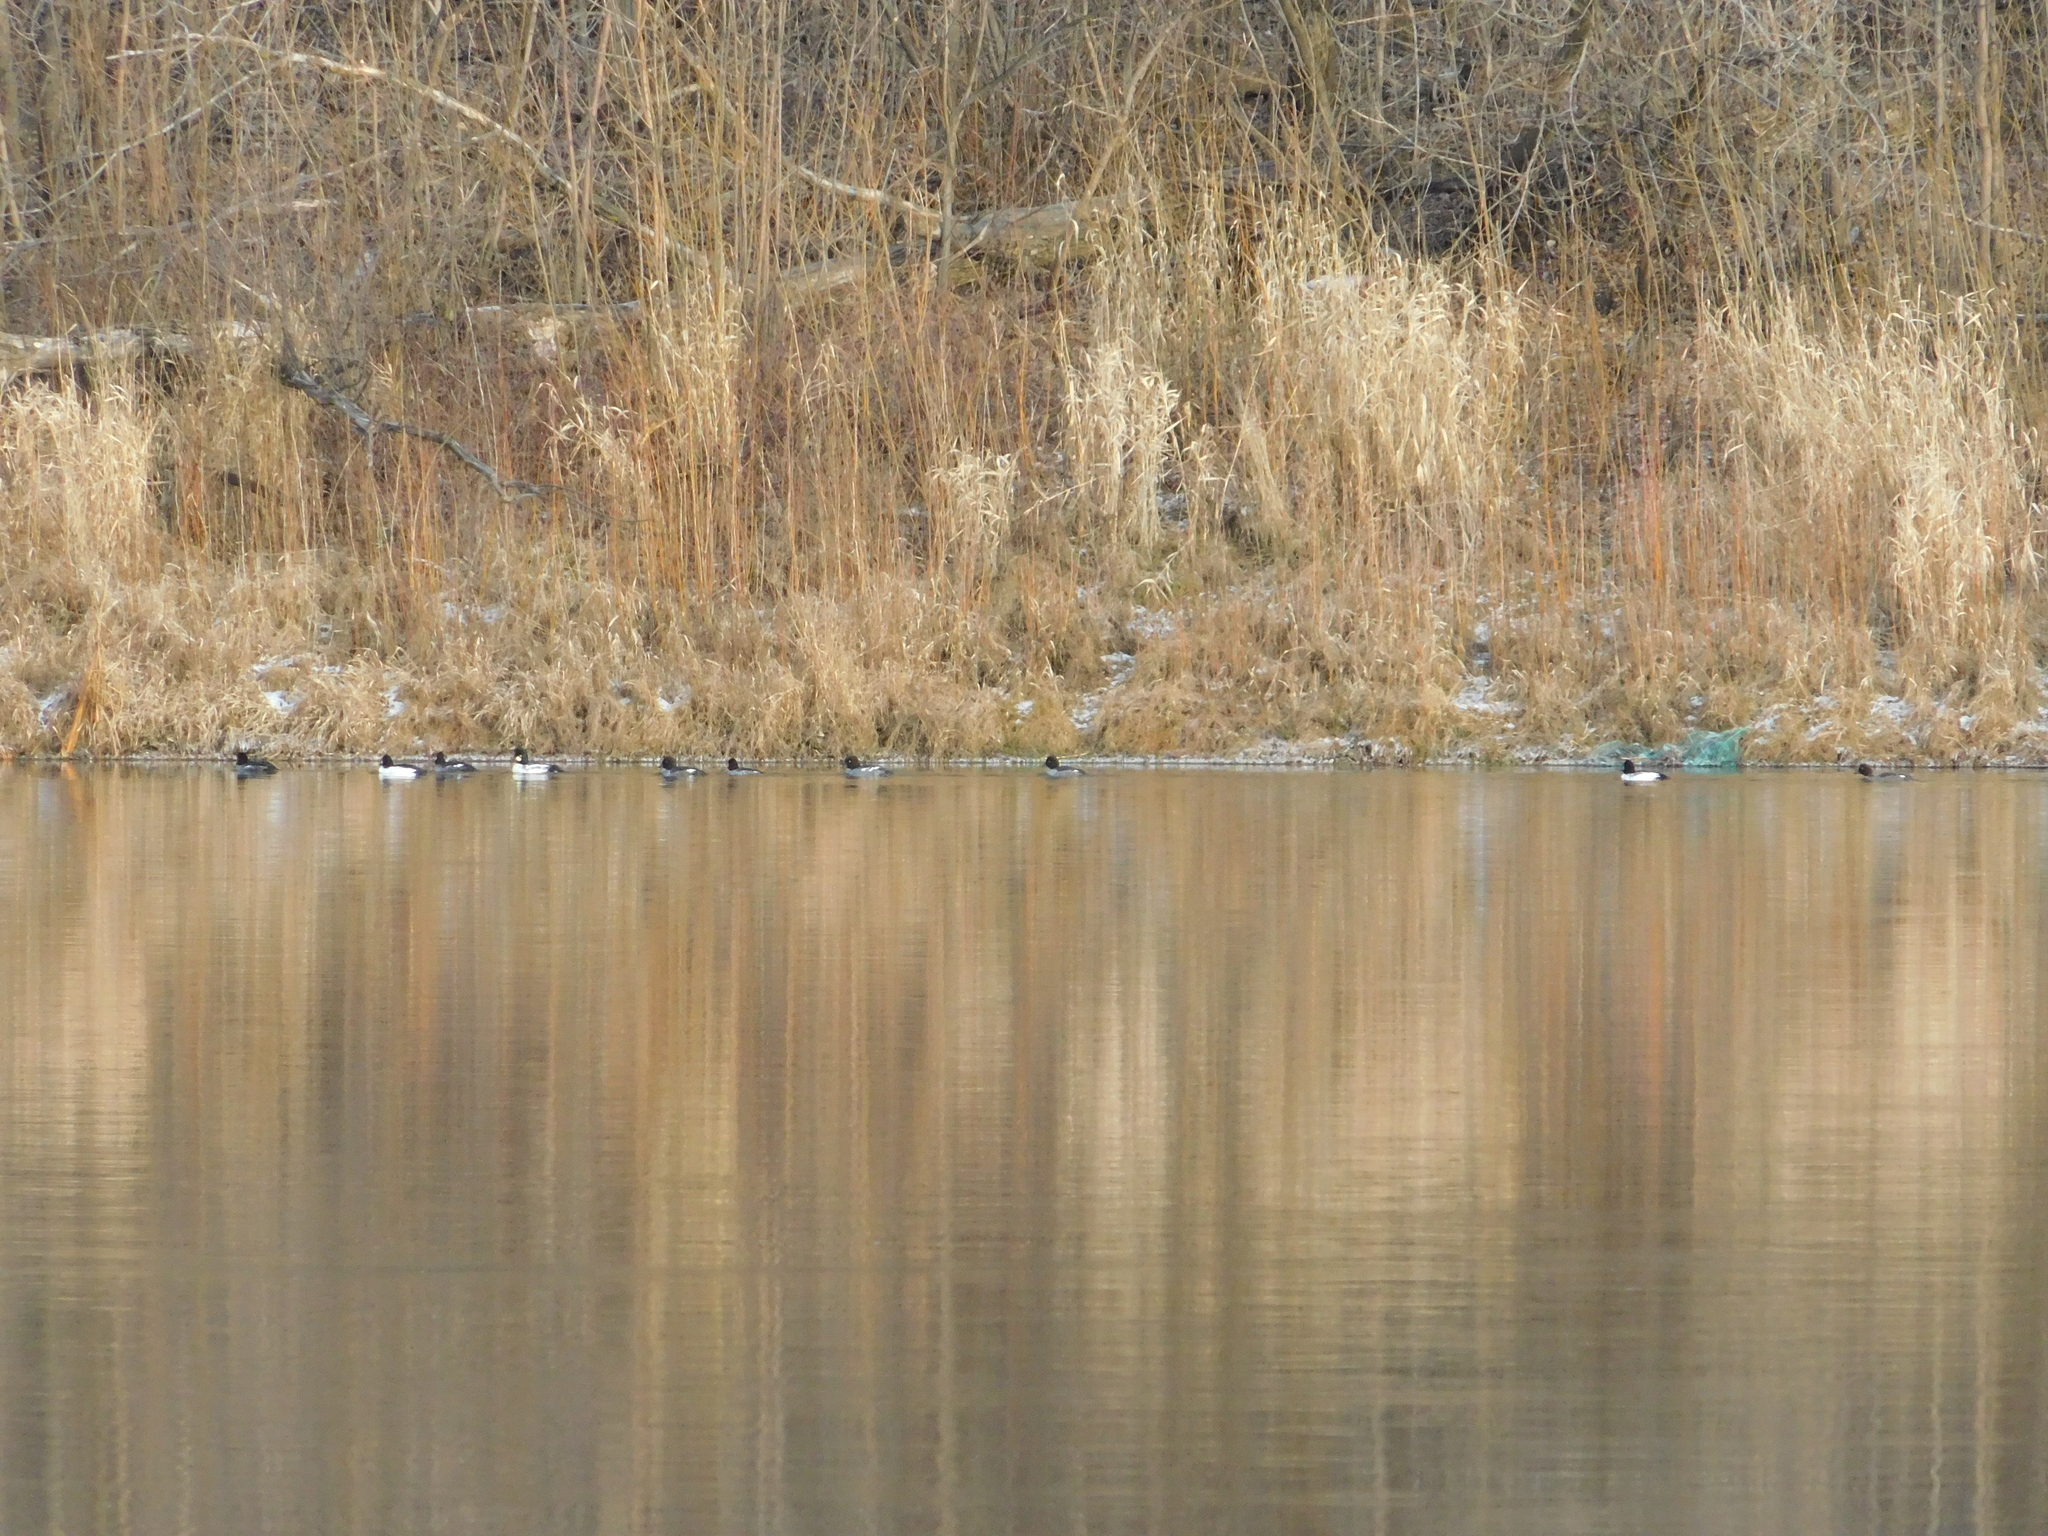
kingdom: Animalia
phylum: Chordata
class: Aves
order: Anseriformes
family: Anatidae
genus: Bucephala
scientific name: Bucephala clangula
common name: Common goldeneye
